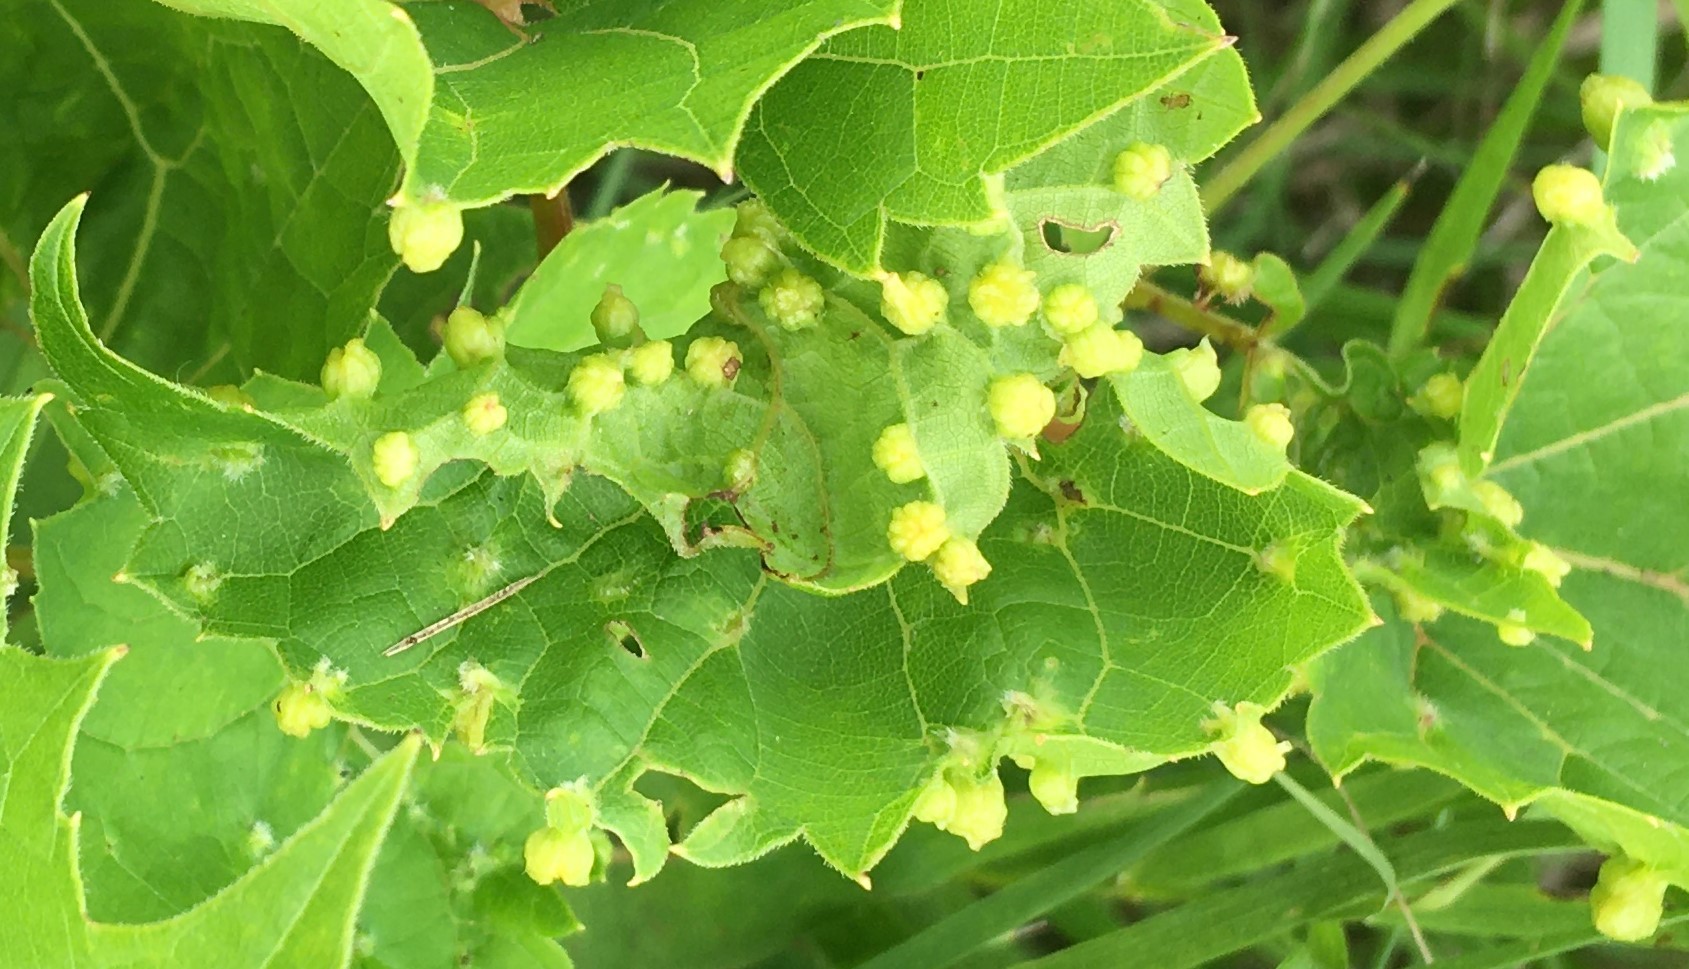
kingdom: Animalia
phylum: Arthropoda
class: Insecta
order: Hemiptera
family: Phylloxeridae
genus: Daktulosphaira
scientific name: Daktulosphaira vitifoliae
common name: Grape phylloxera
